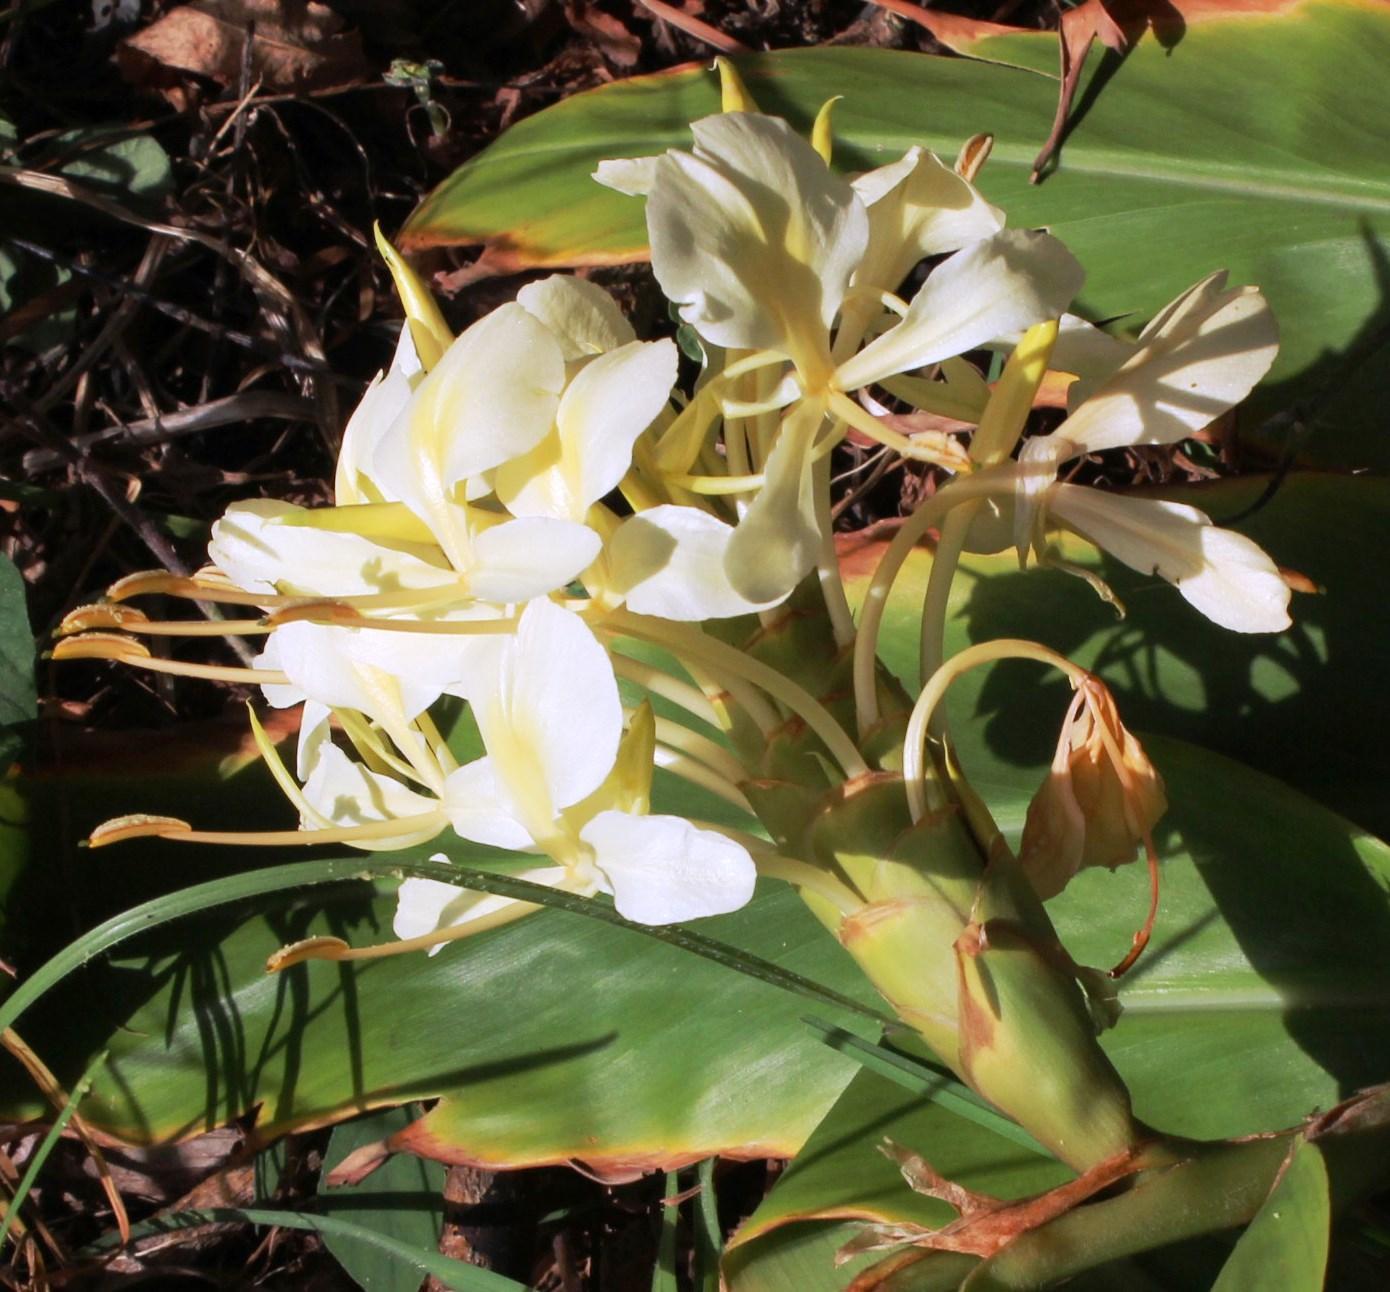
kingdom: Plantae
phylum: Tracheophyta
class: Liliopsida
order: Zingiberales
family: Zingiberaceae
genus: Hedychium
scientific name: Hedychium flavescens
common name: Yellow ginger
